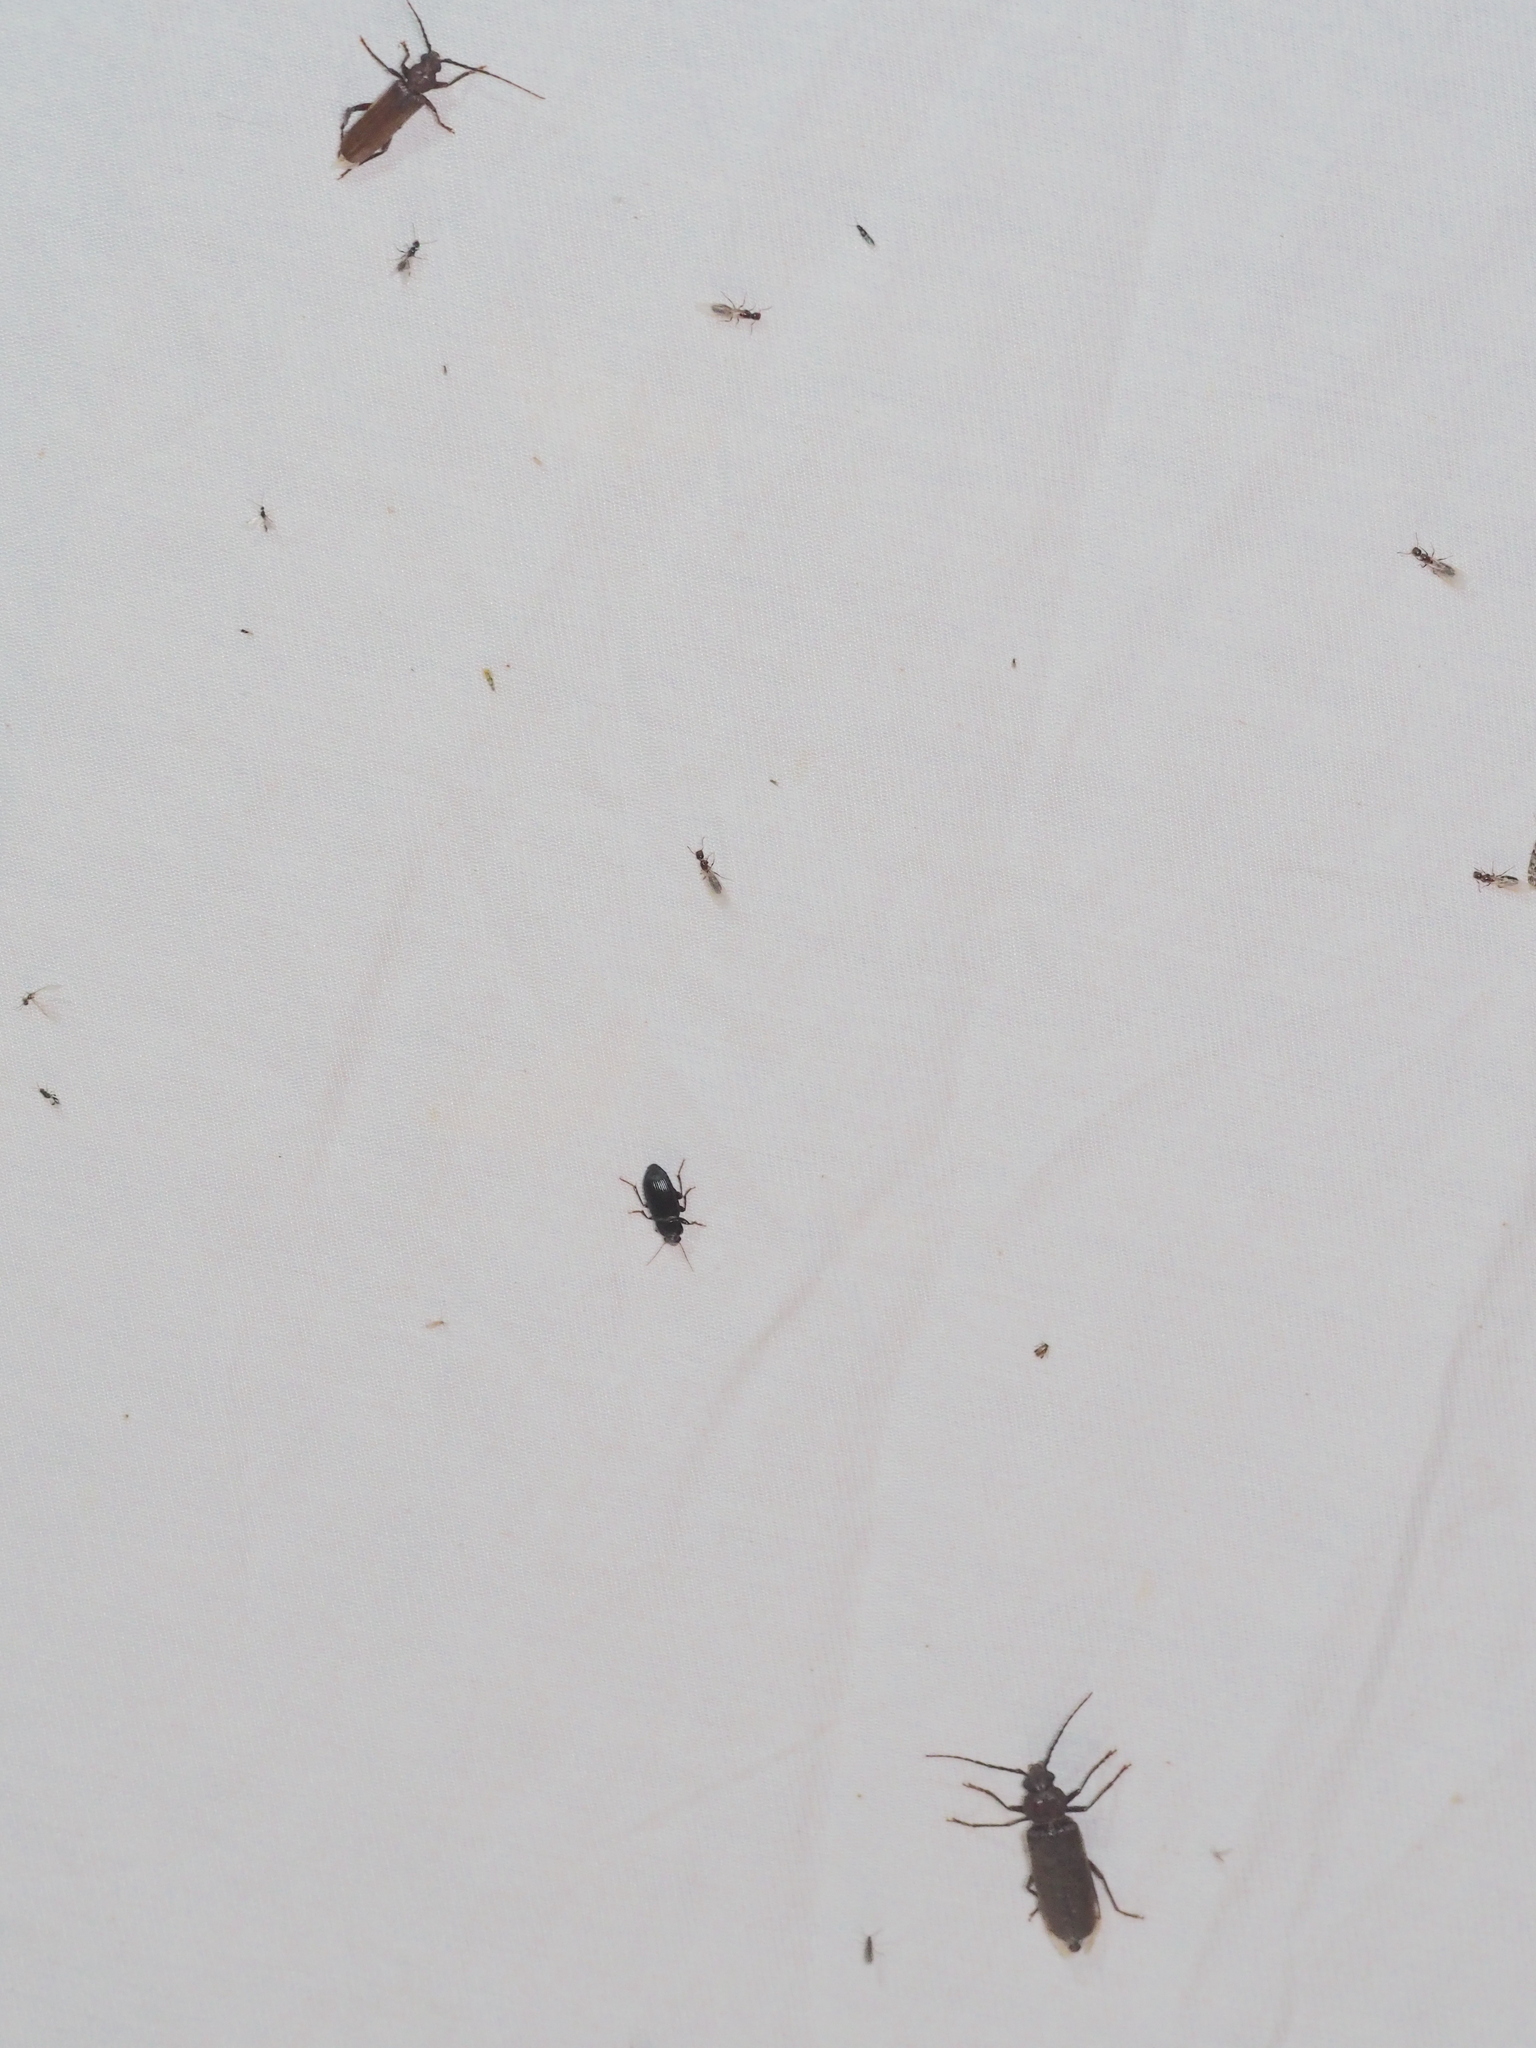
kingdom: Animalia
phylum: Arthropoda
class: Insecta
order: Coleoptera
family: Cerambycidae
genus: Arhopalus
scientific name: Arhopalus rusticus
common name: Rust pine borer
